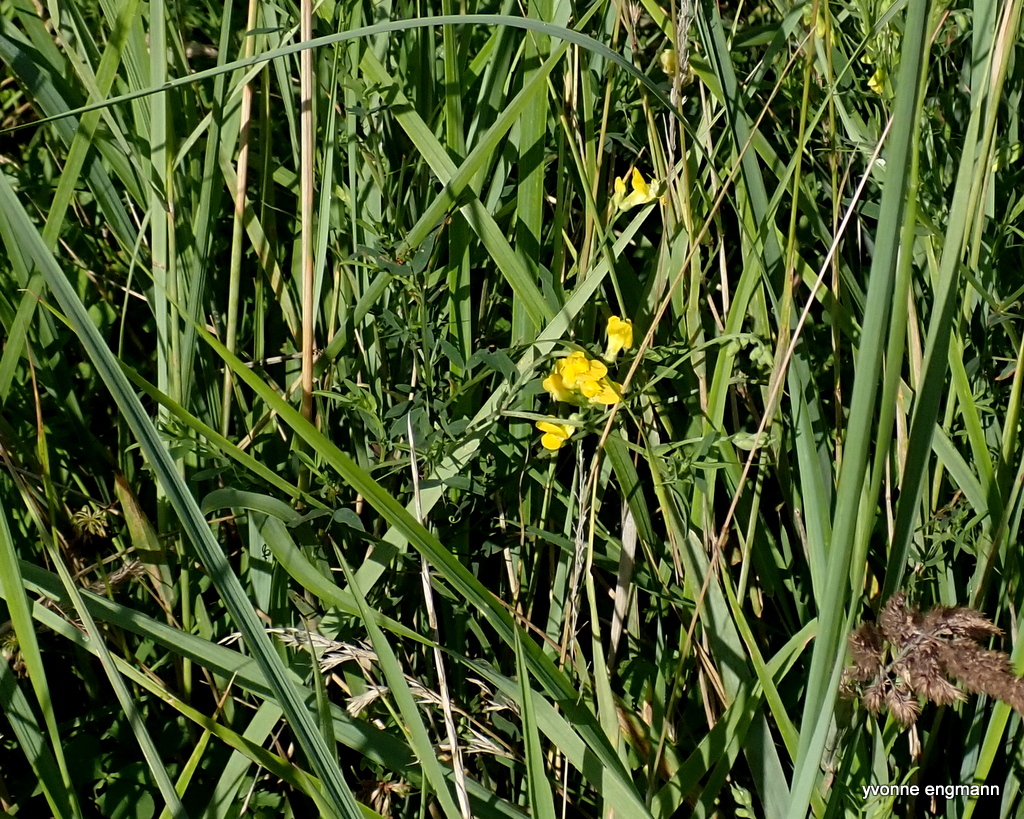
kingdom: Plantae
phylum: Tracheophyta
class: Magnoliopsida
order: Fabales
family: Fabaceae
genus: Lathyrus
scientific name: Lathyrus pratensis
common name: Meadow vetchling
